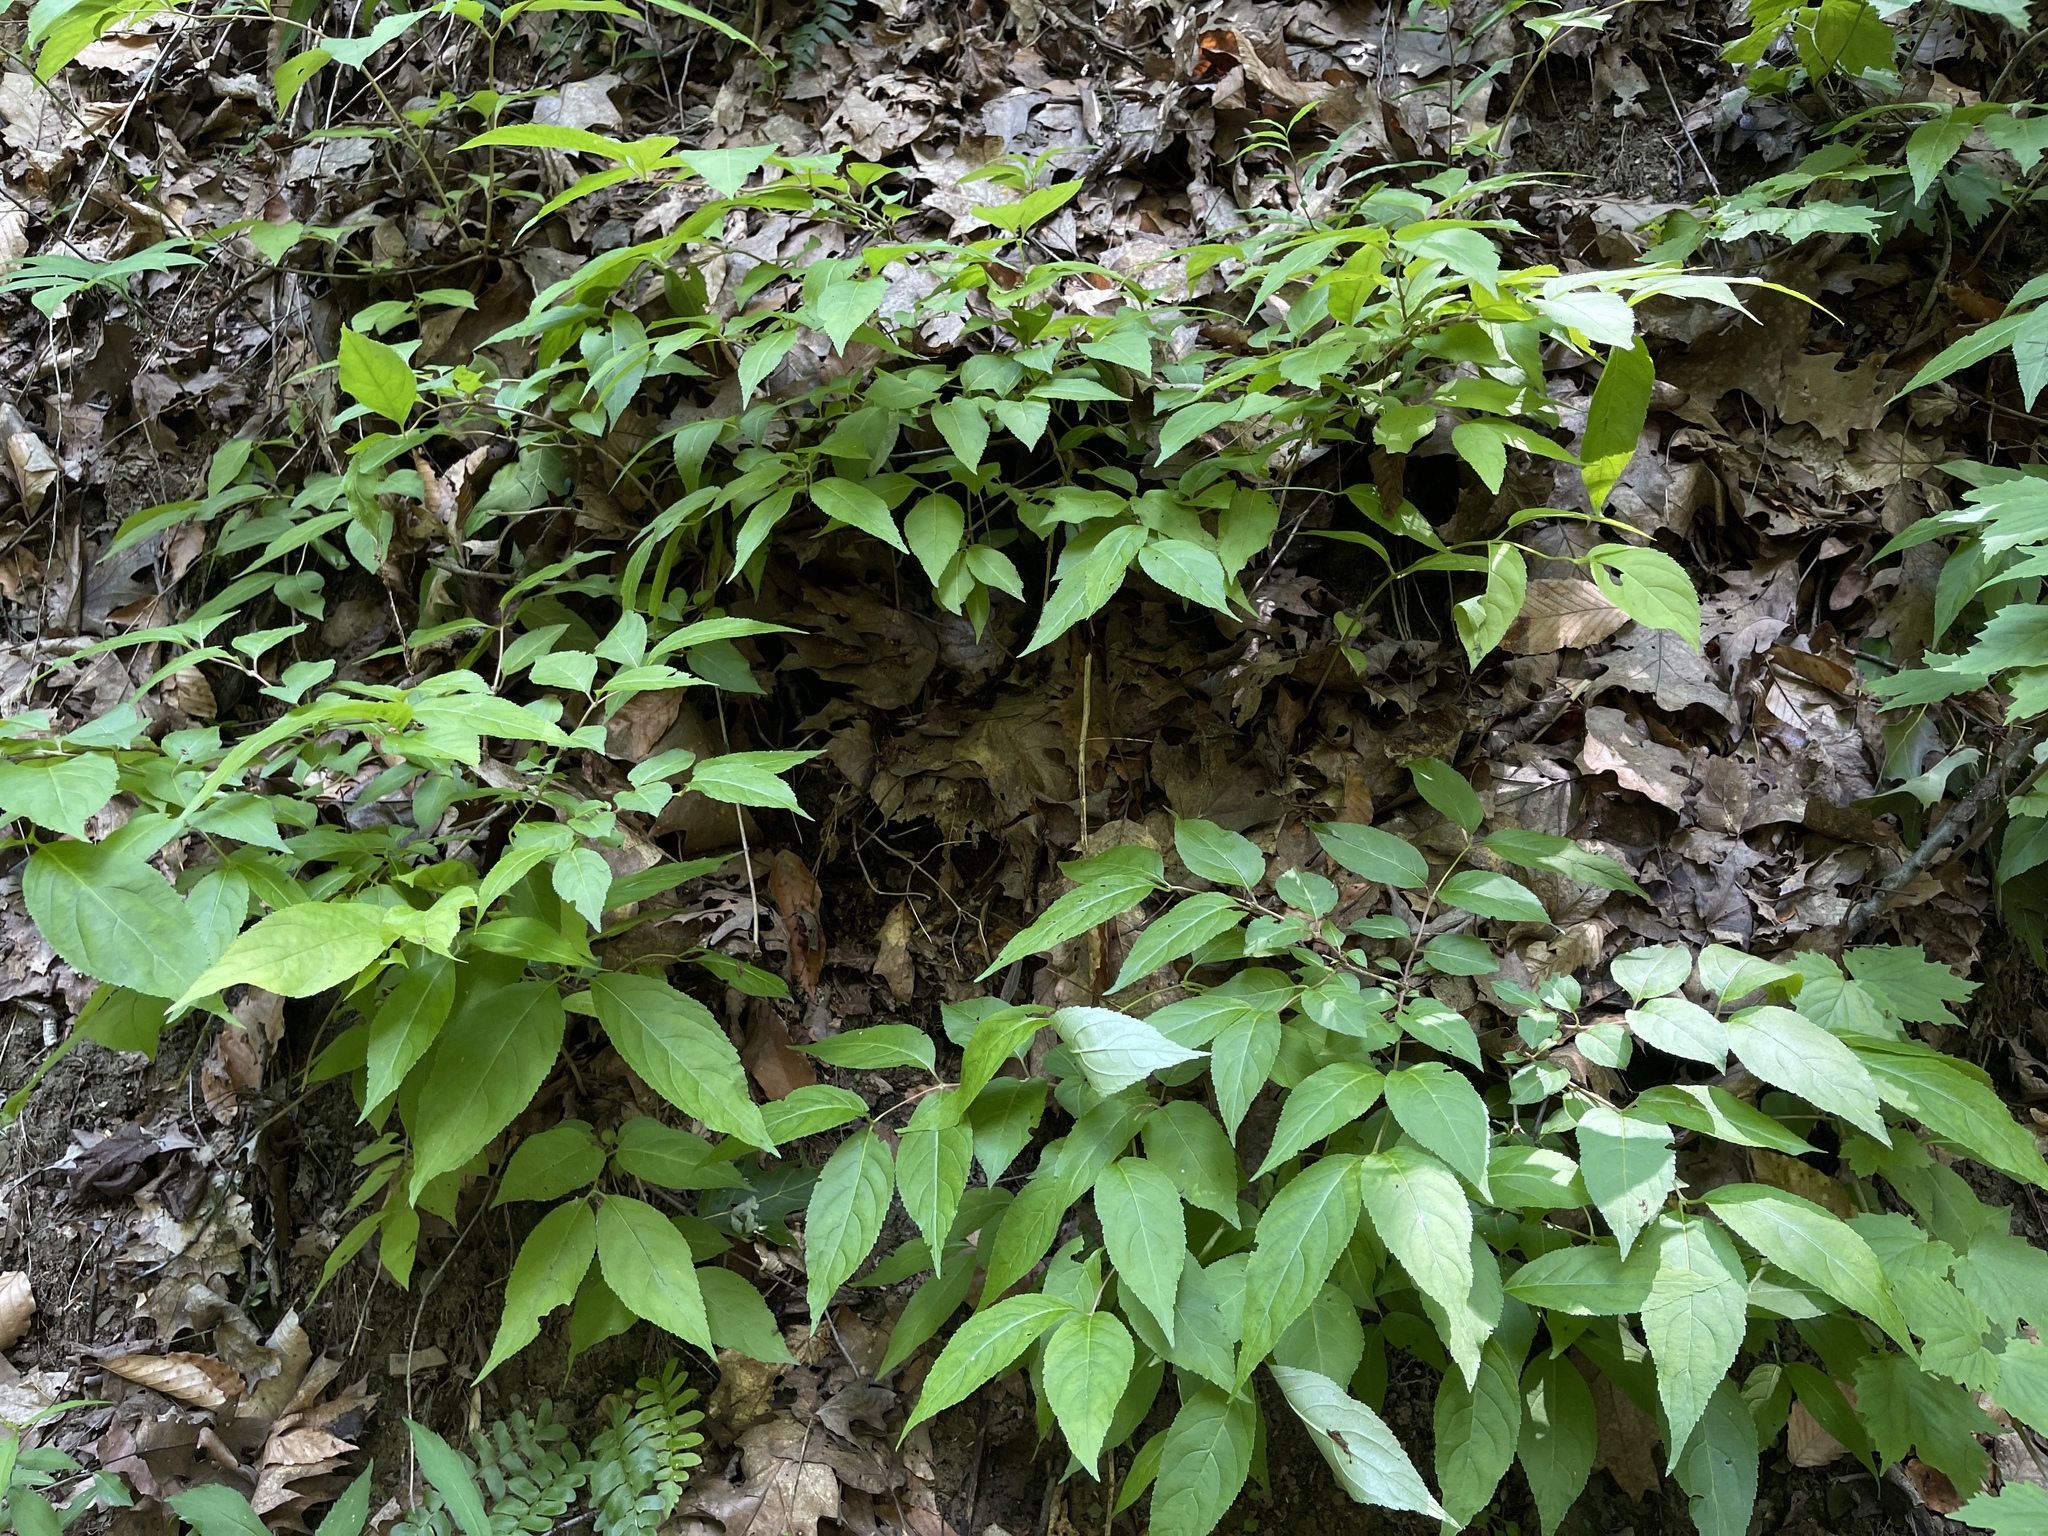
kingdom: Plantae
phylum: Tracheophyta
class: Magnoliopsida
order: Dipsacales
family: Caprifoliaceae
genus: Diervilla
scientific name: Diervilla lonicera
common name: Bush-honeysuckle
